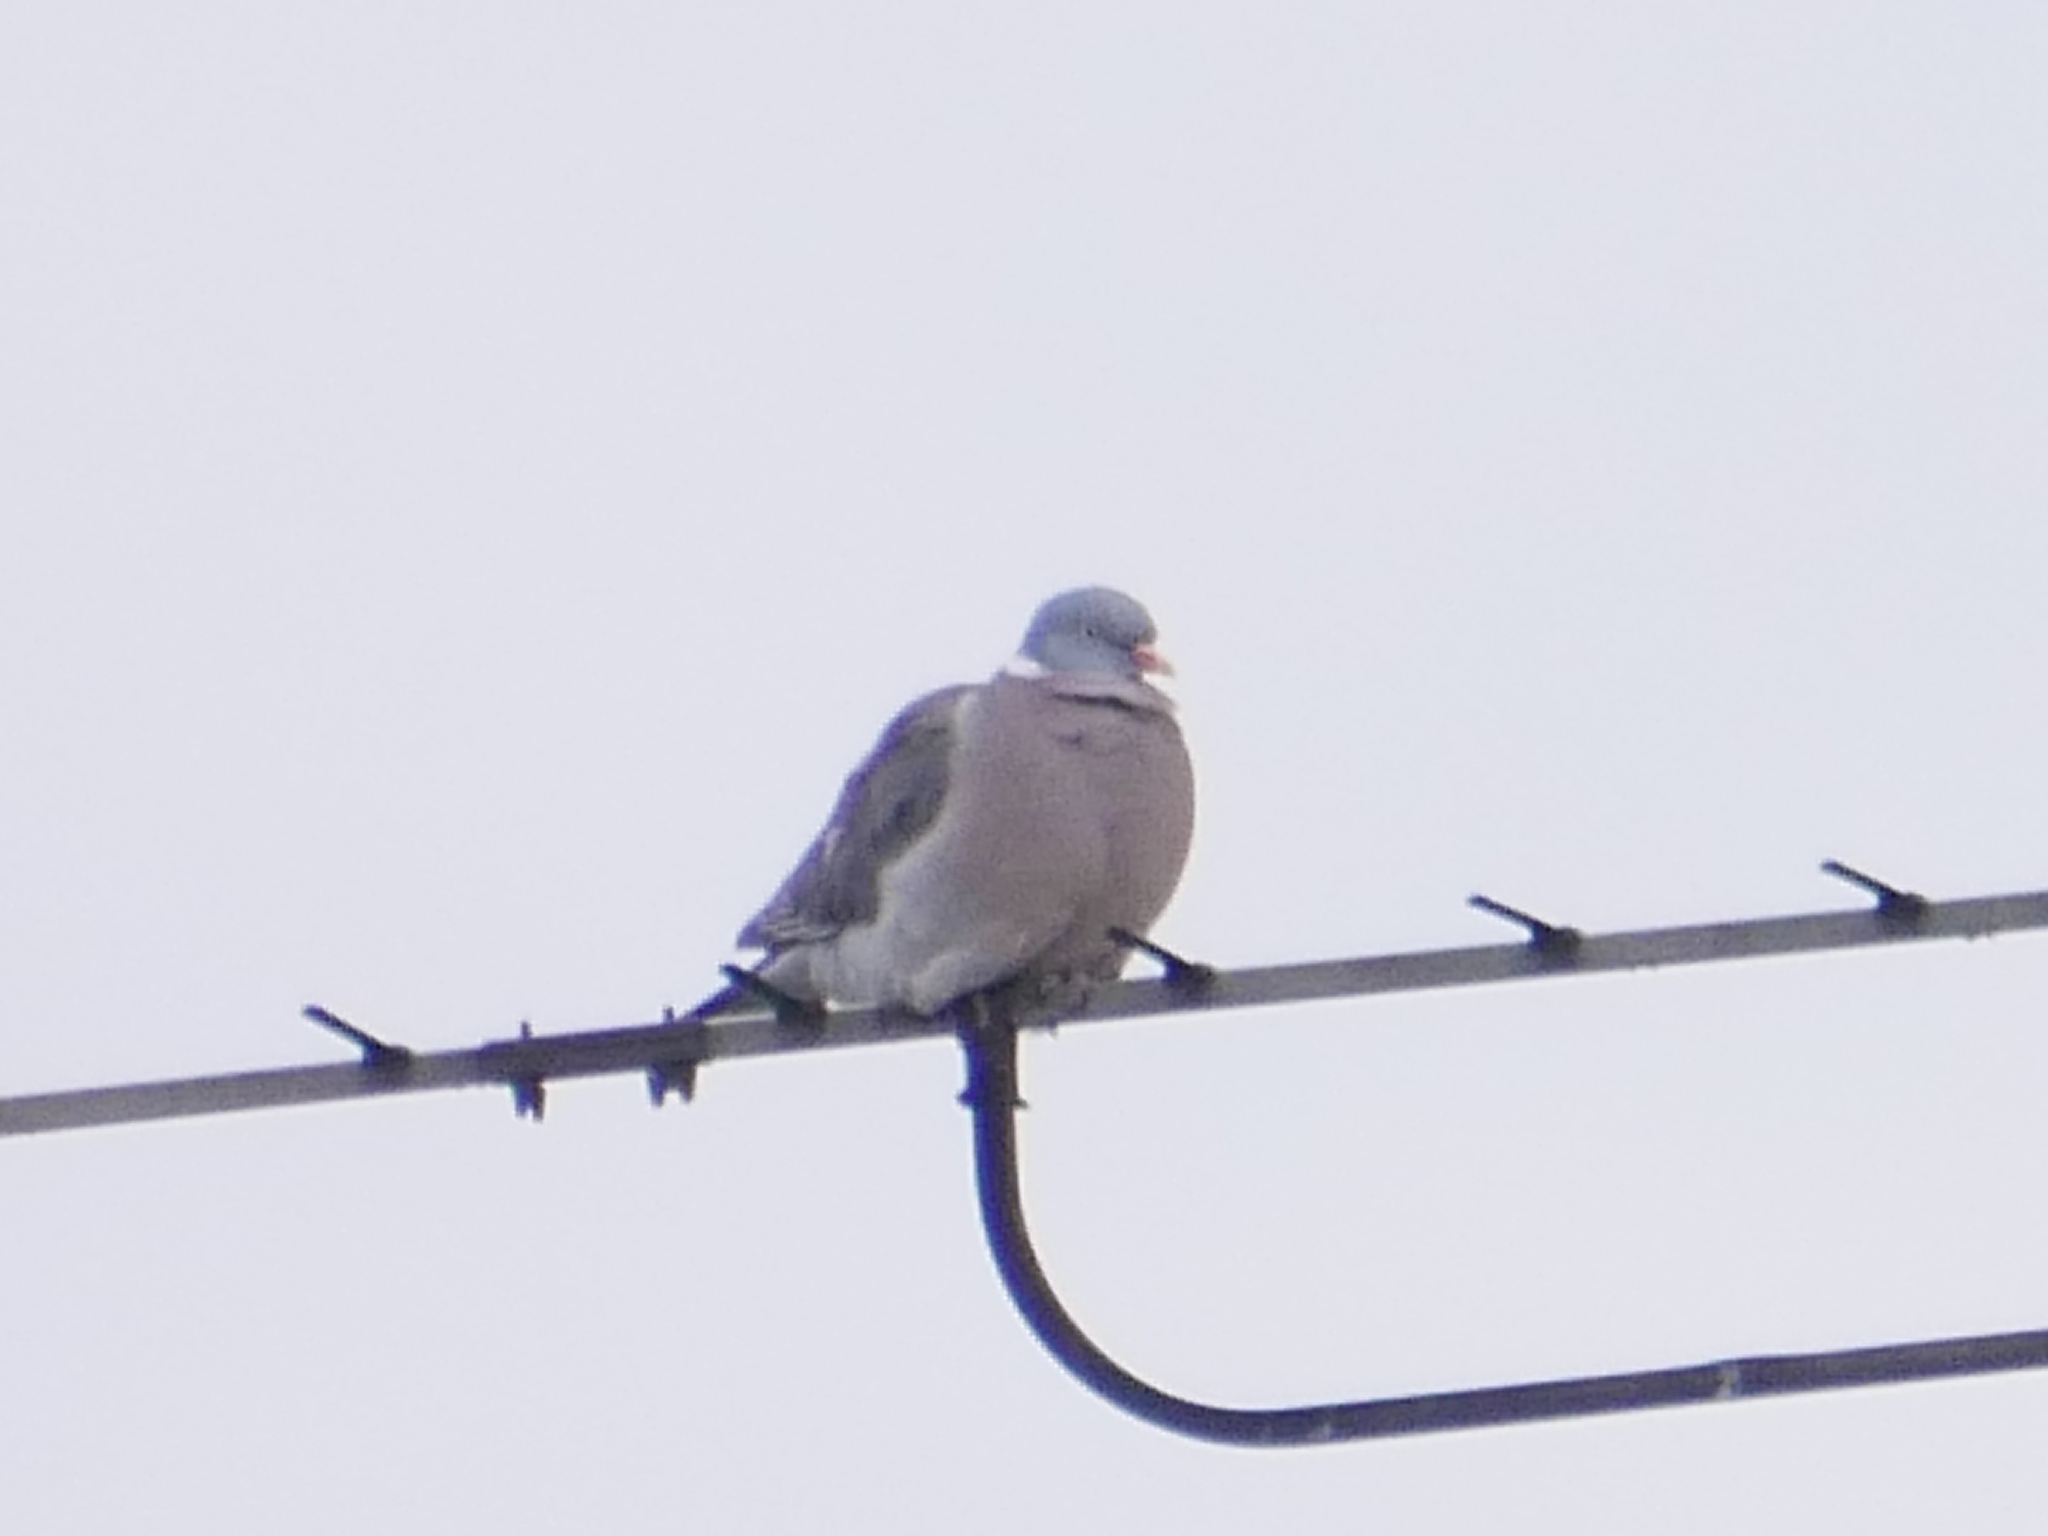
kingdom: Animalia
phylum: Chordata
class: Aves
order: Columbiformes
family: Columbidae
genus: Columba
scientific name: Columba palumbus
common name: Common wood pigeon
